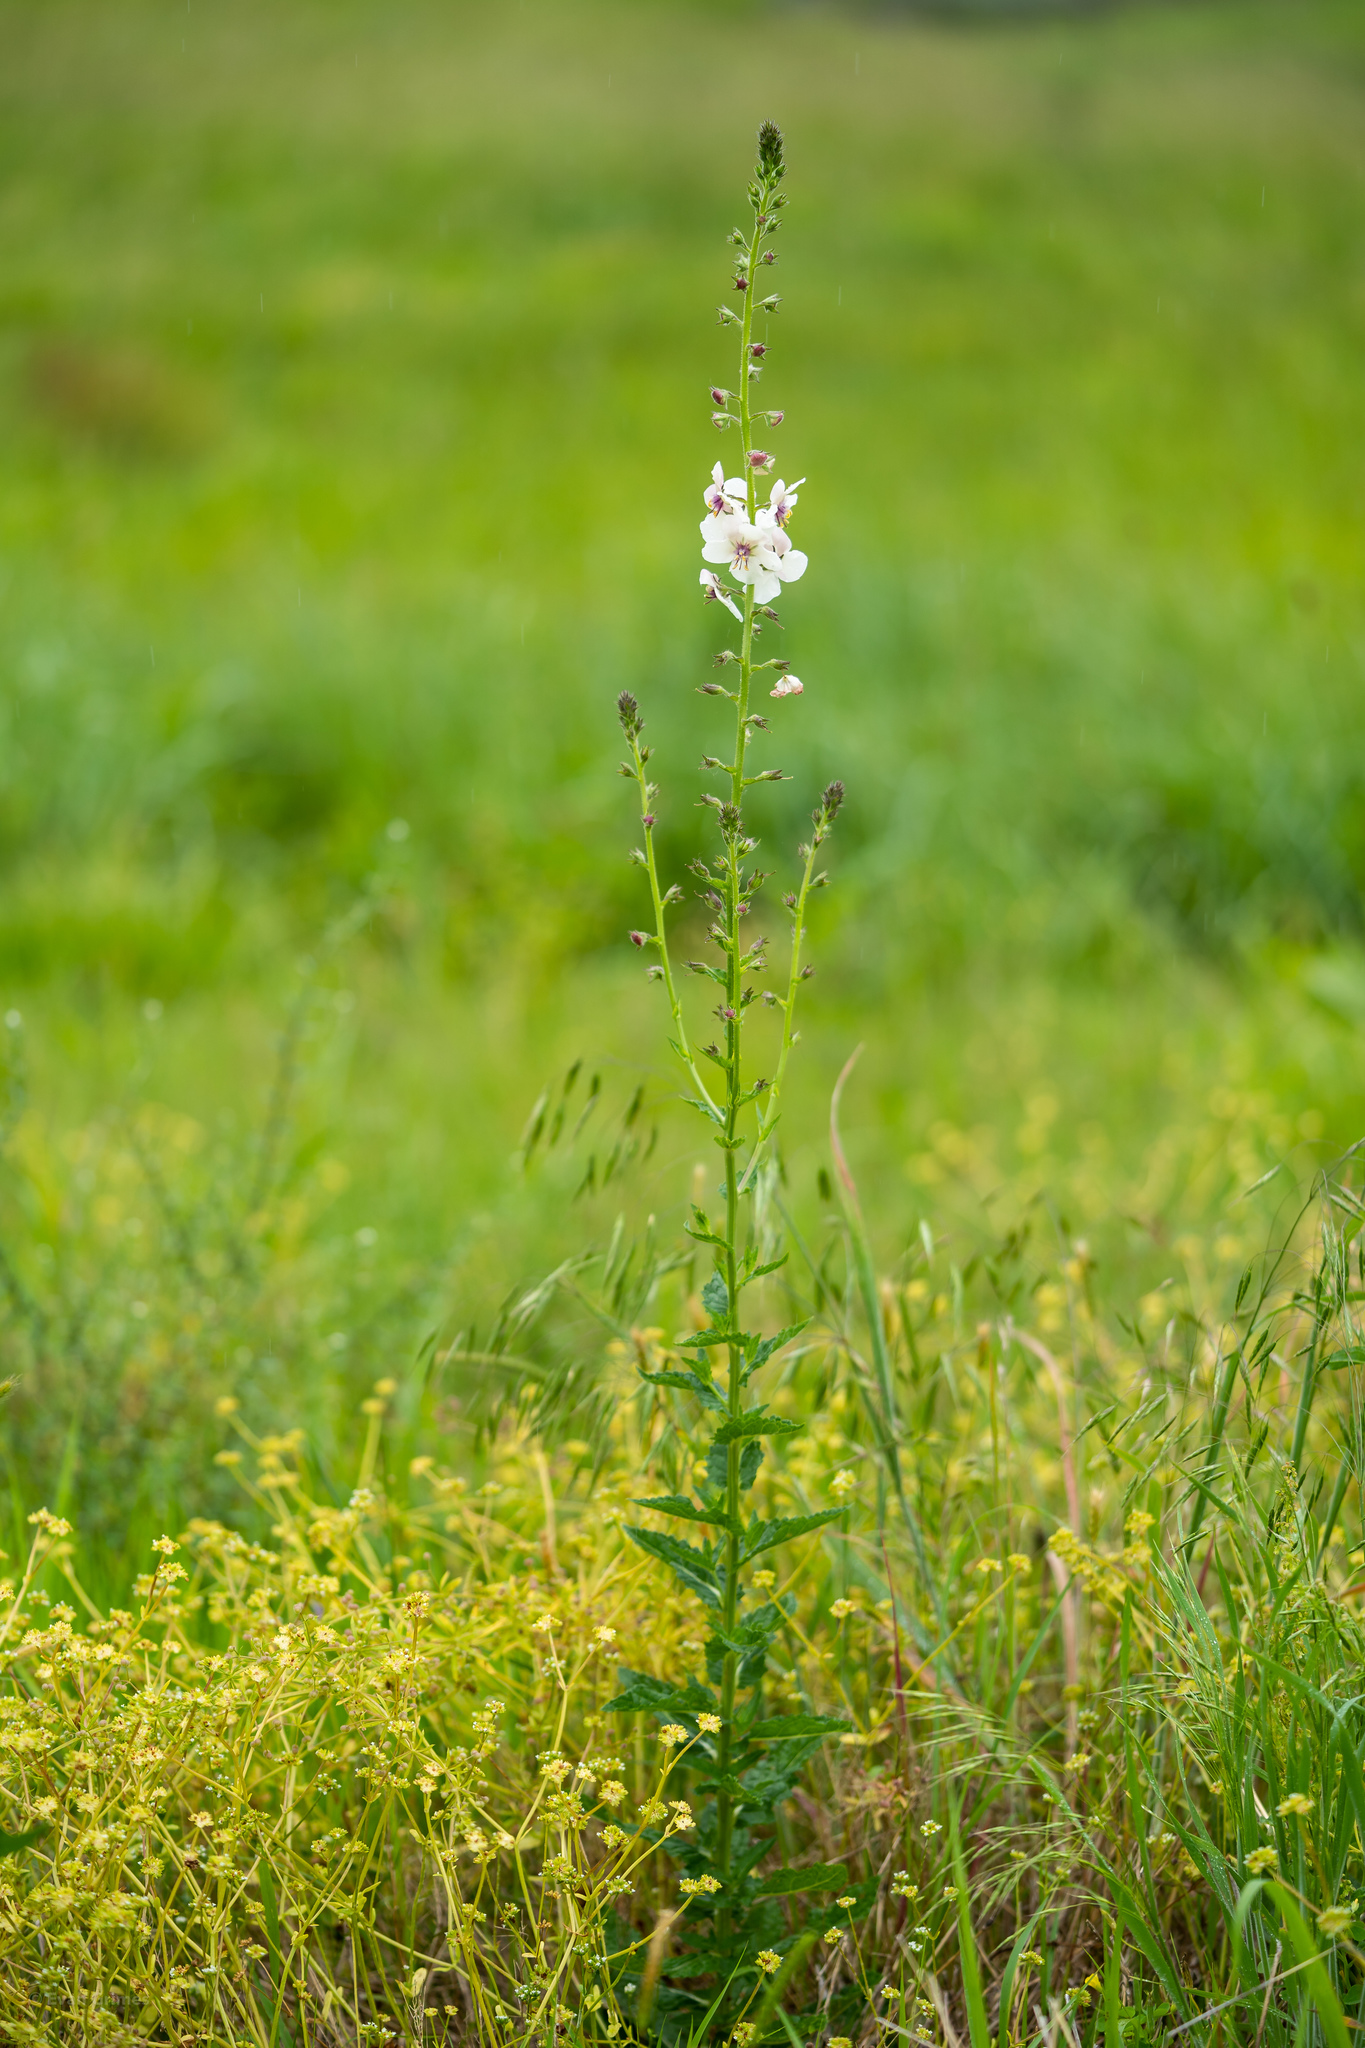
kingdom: Plantae
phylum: Tracheophyta
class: Magnoliopsida
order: Lamiales
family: Scrophulariaceae
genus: Verbascum
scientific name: Verbascum blattaria
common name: Moth mullein
